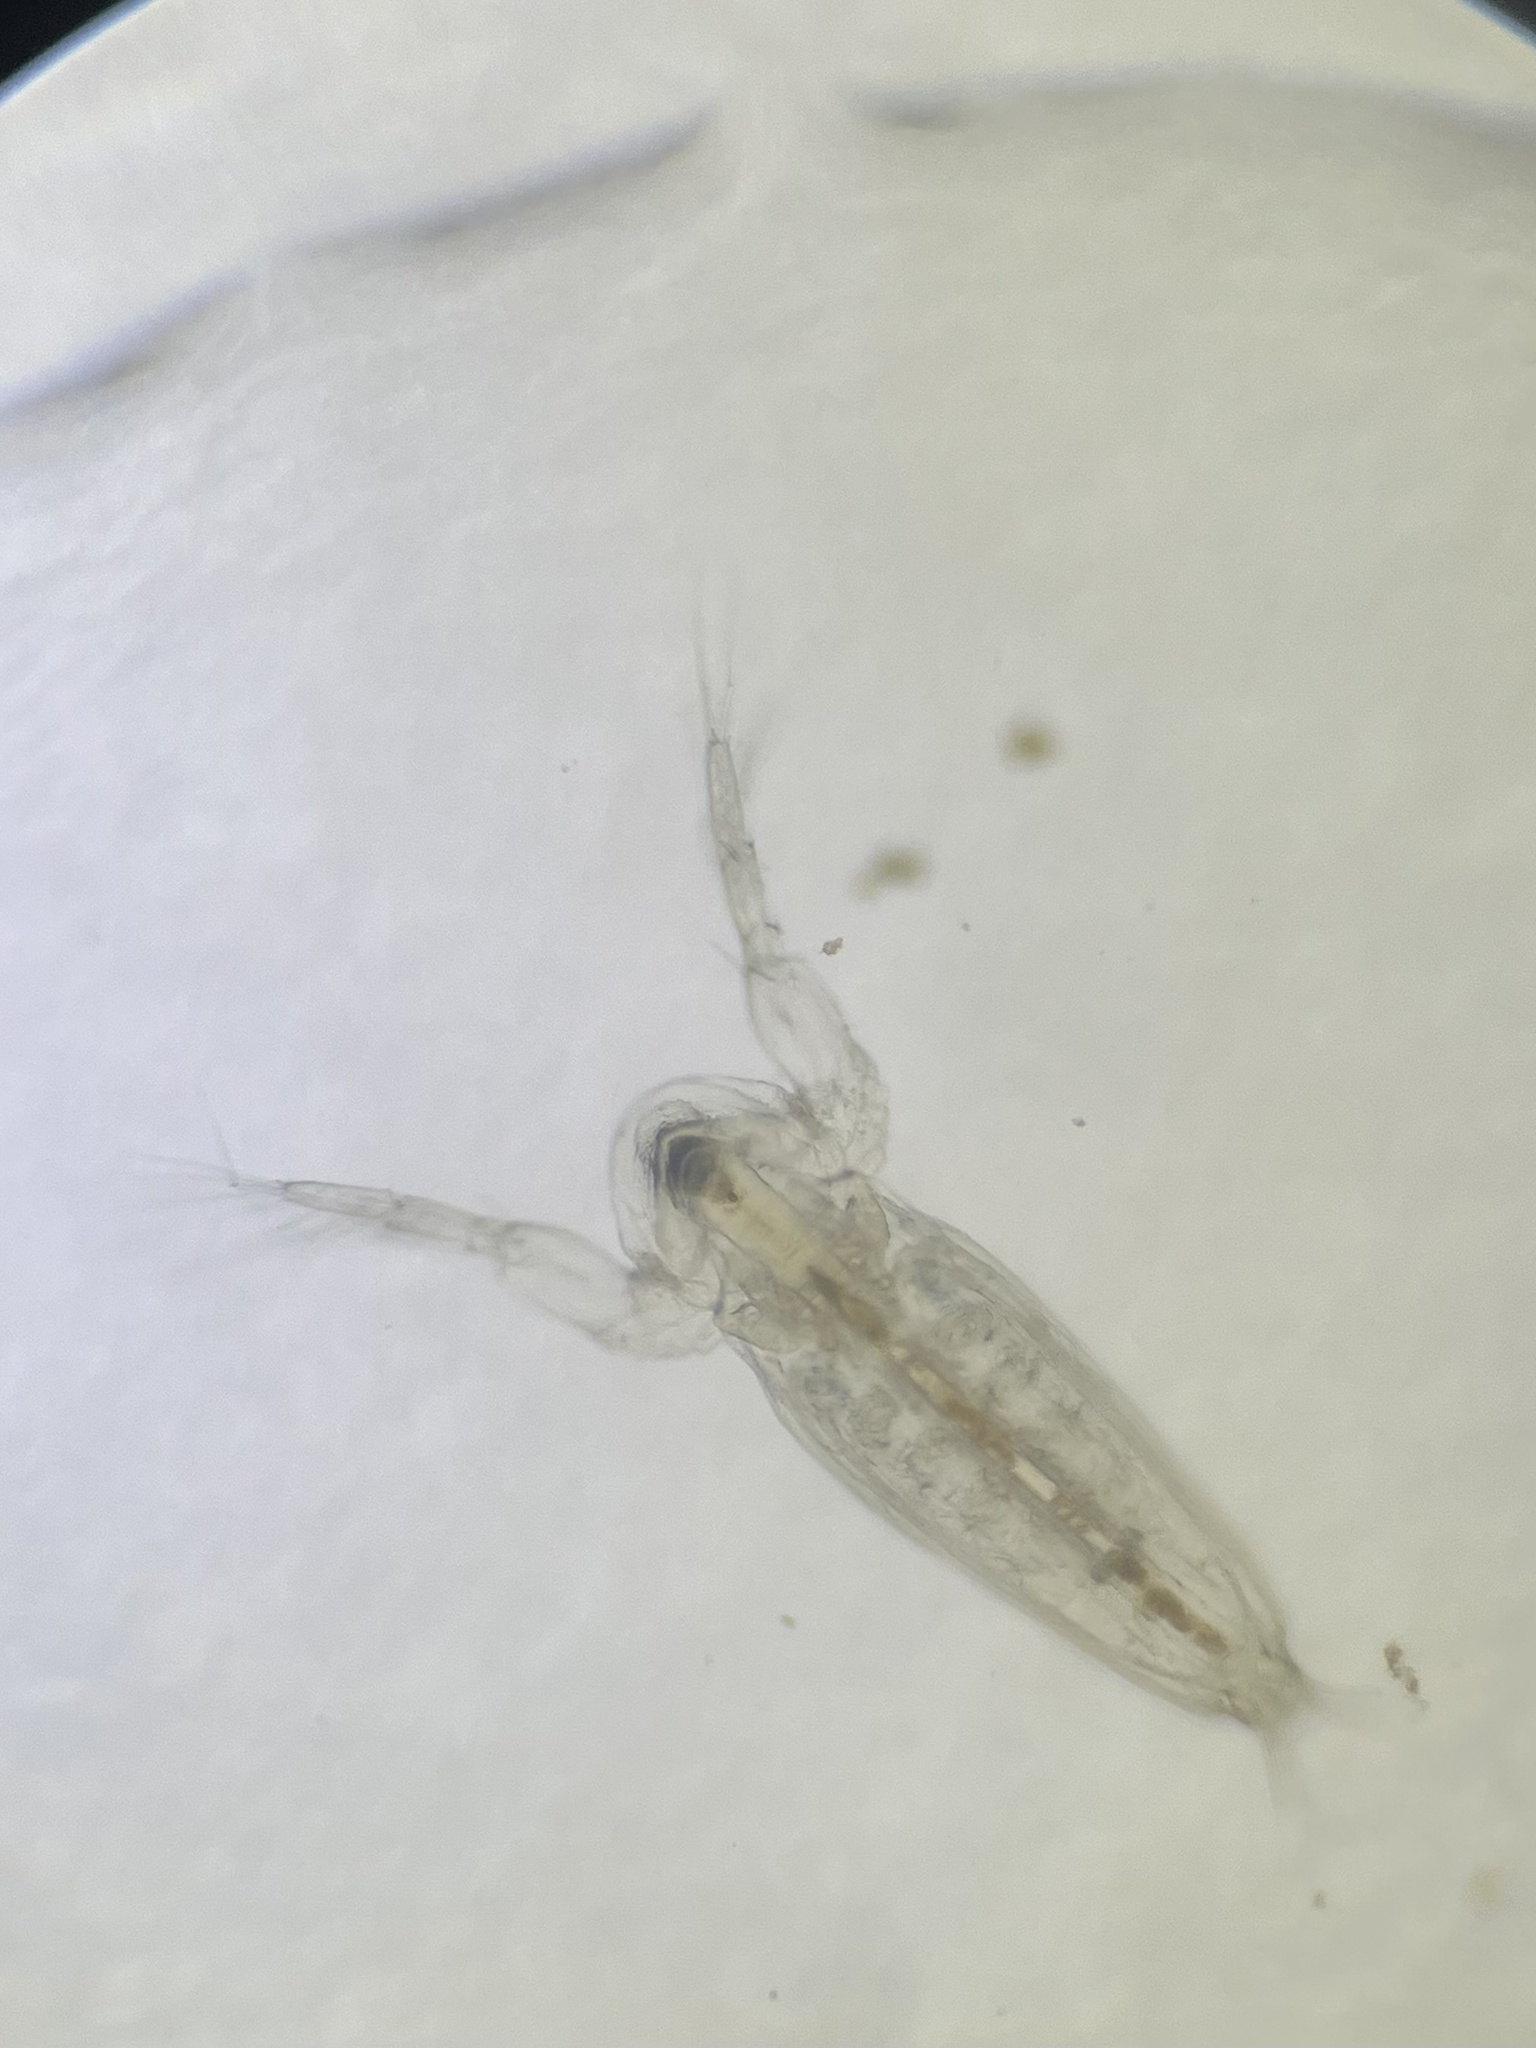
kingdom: Animalia
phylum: Arthropoda
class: Branchiopoda
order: Diplostraca
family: Sididae
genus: Sida
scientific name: Sida crystallina
